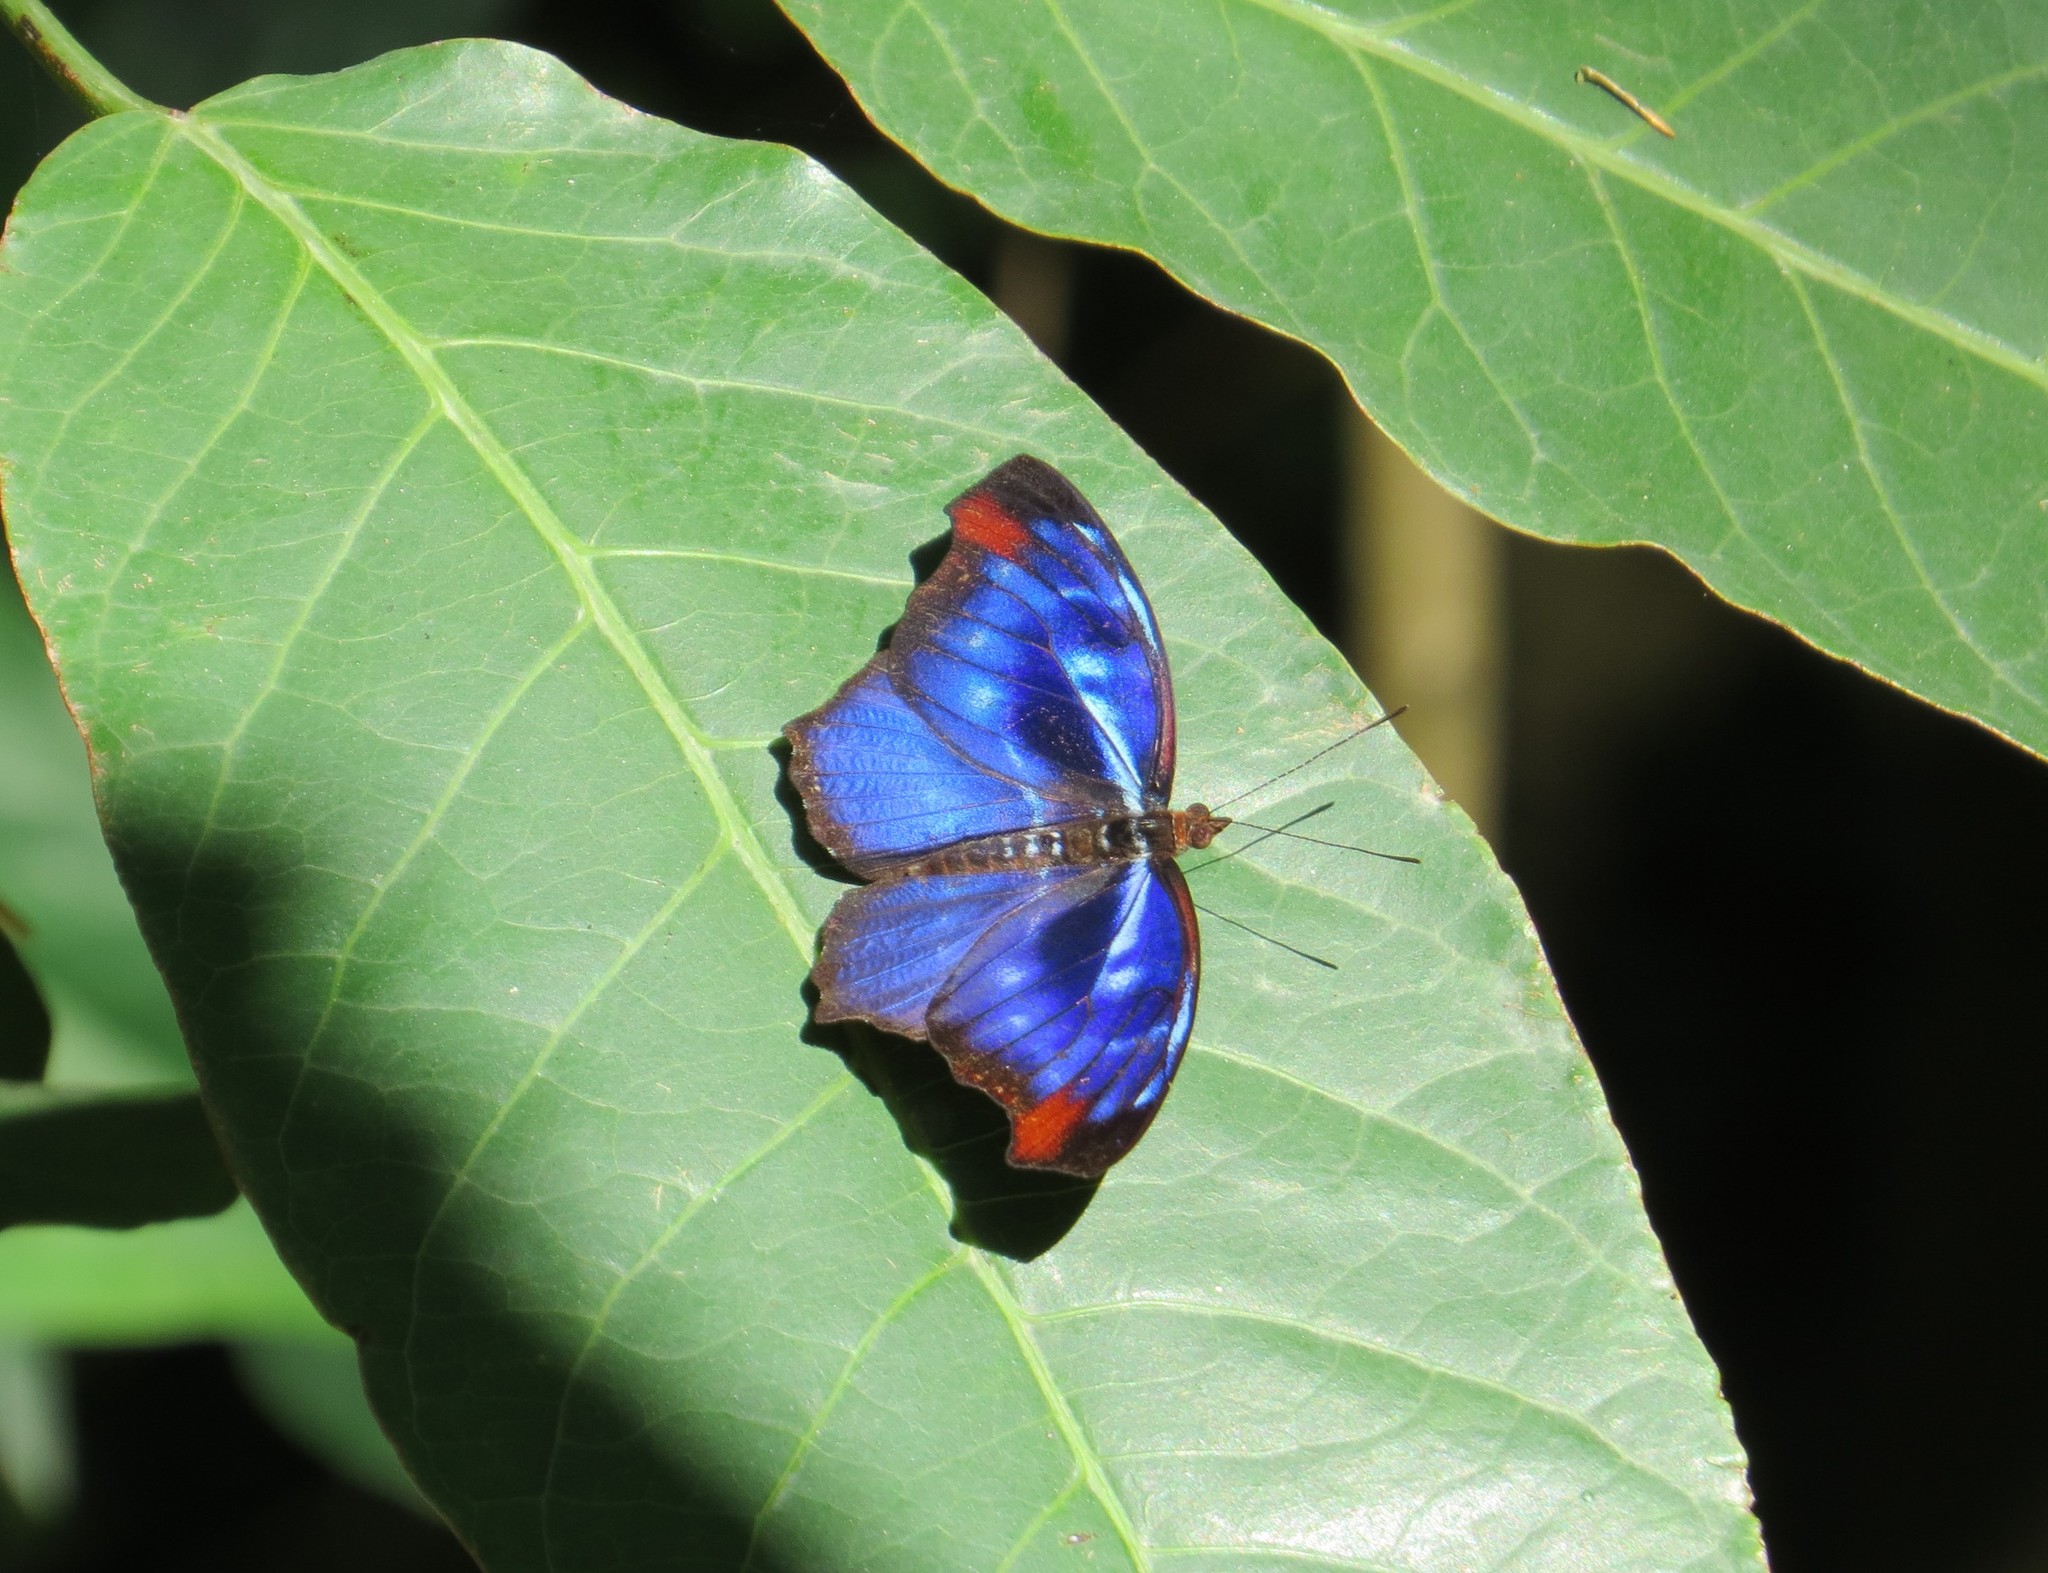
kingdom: Animalia
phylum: Arthropoda
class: Insecta
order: Lepidoptera
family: Nymphalidae
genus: Myscelia
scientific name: Myscelia orsis
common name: Orsis bluewing
